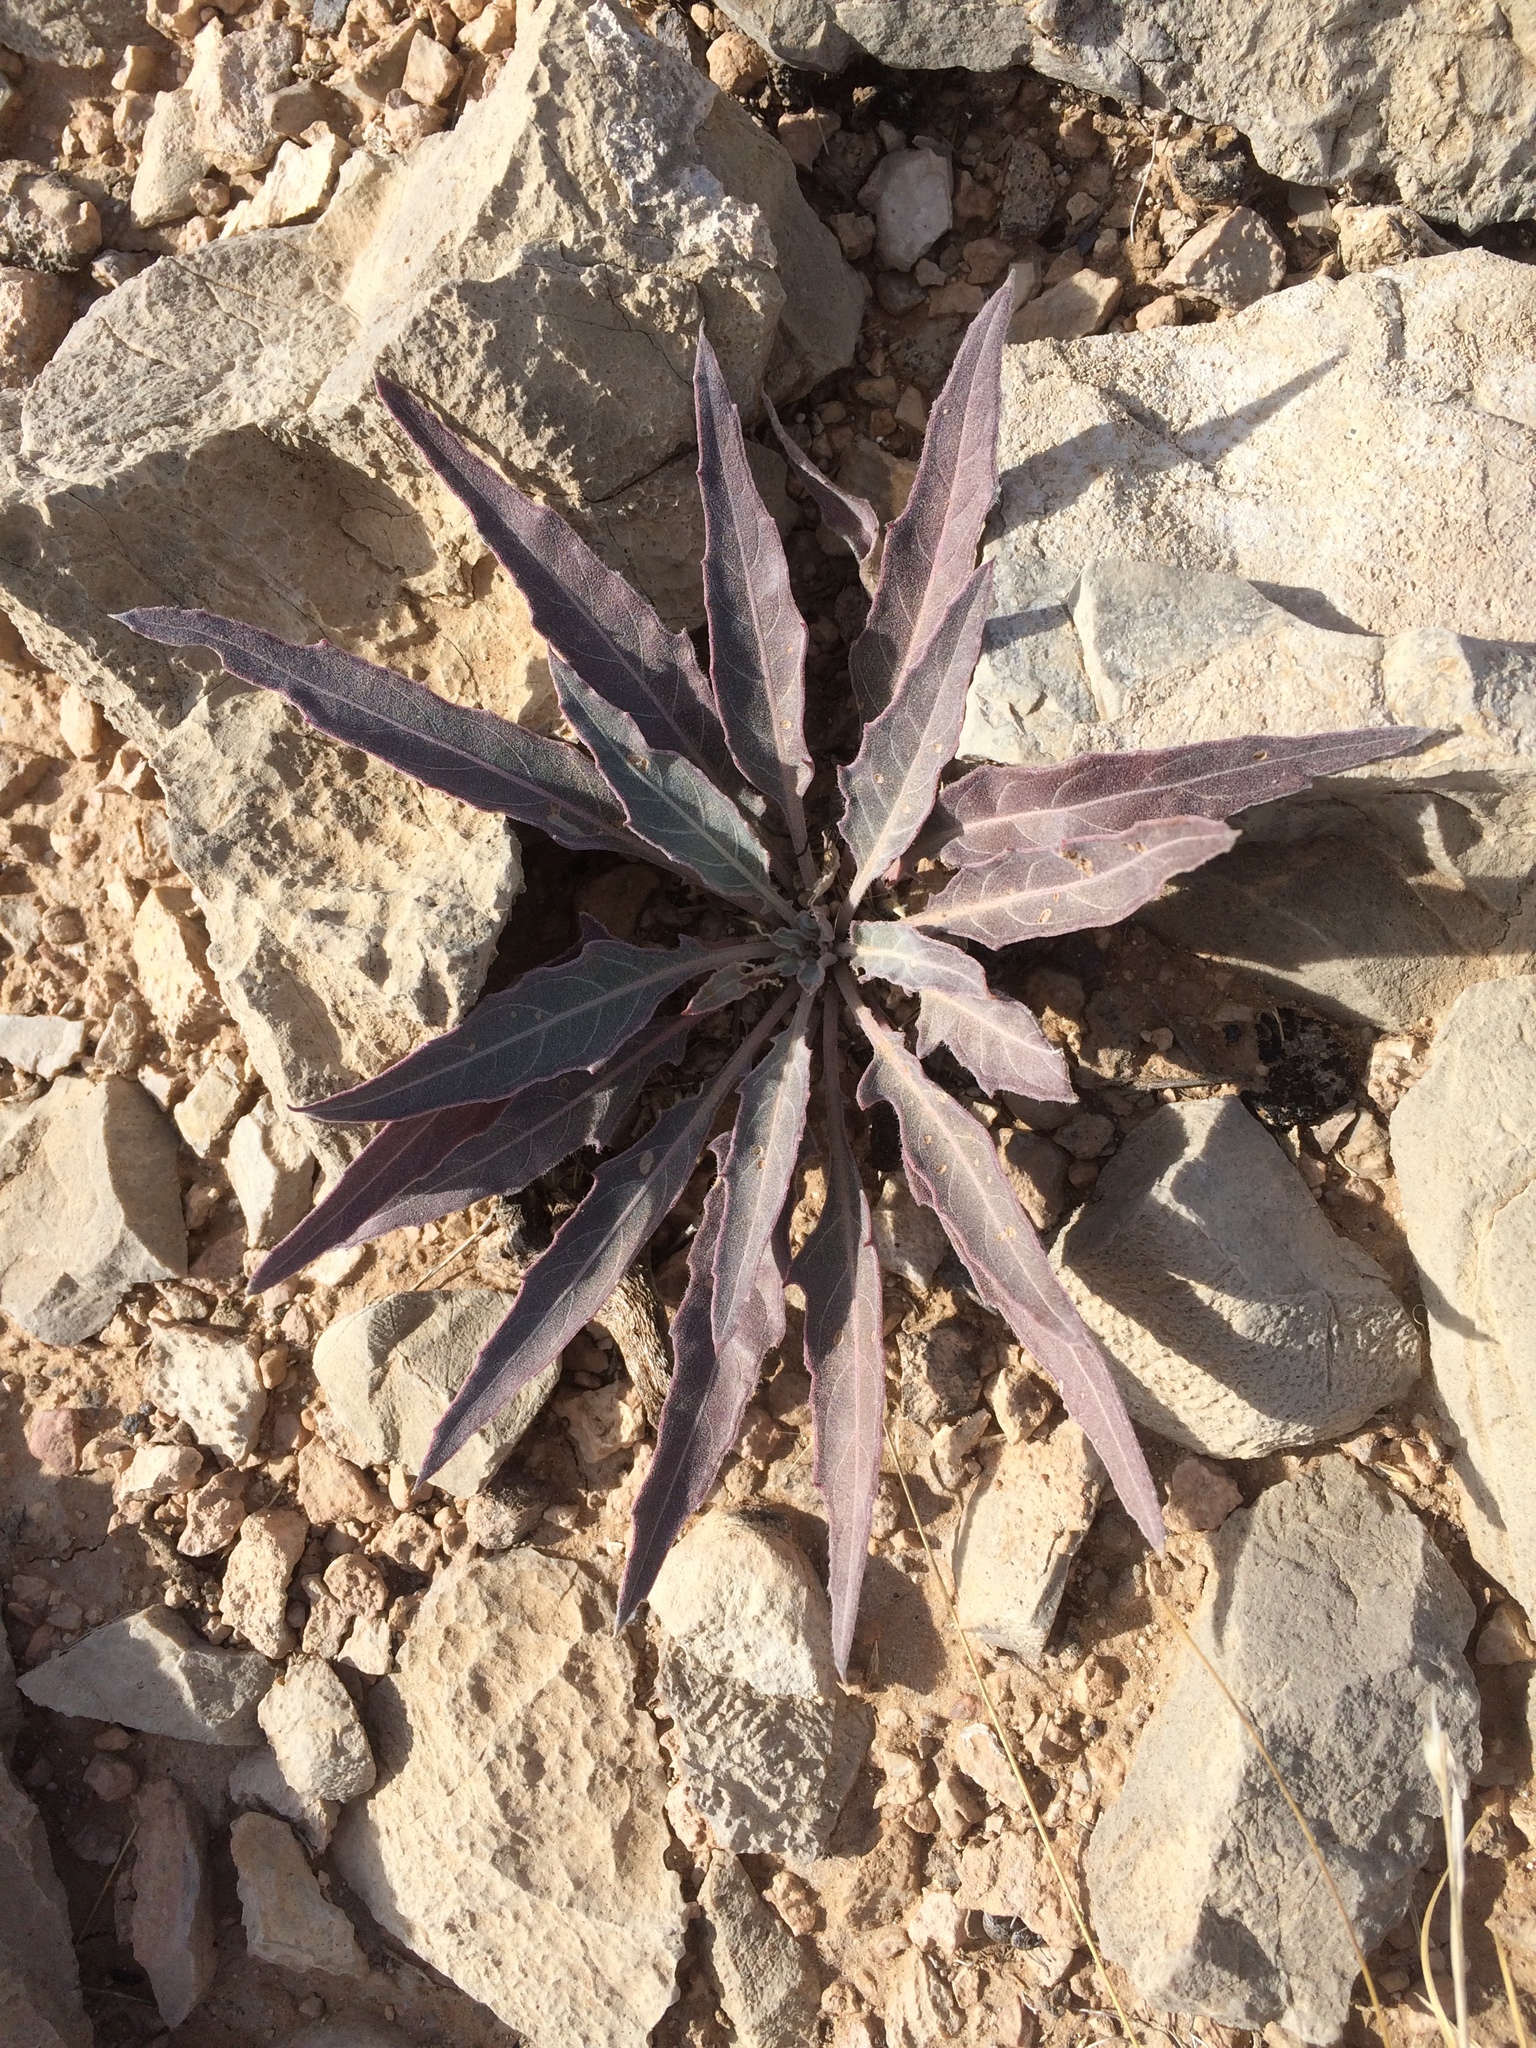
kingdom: Plantae
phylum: Tracheophyta
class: Magnoliopsida
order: Myrtales
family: Onagraceae
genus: Oenothera
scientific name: Oenothera brachycarpa
